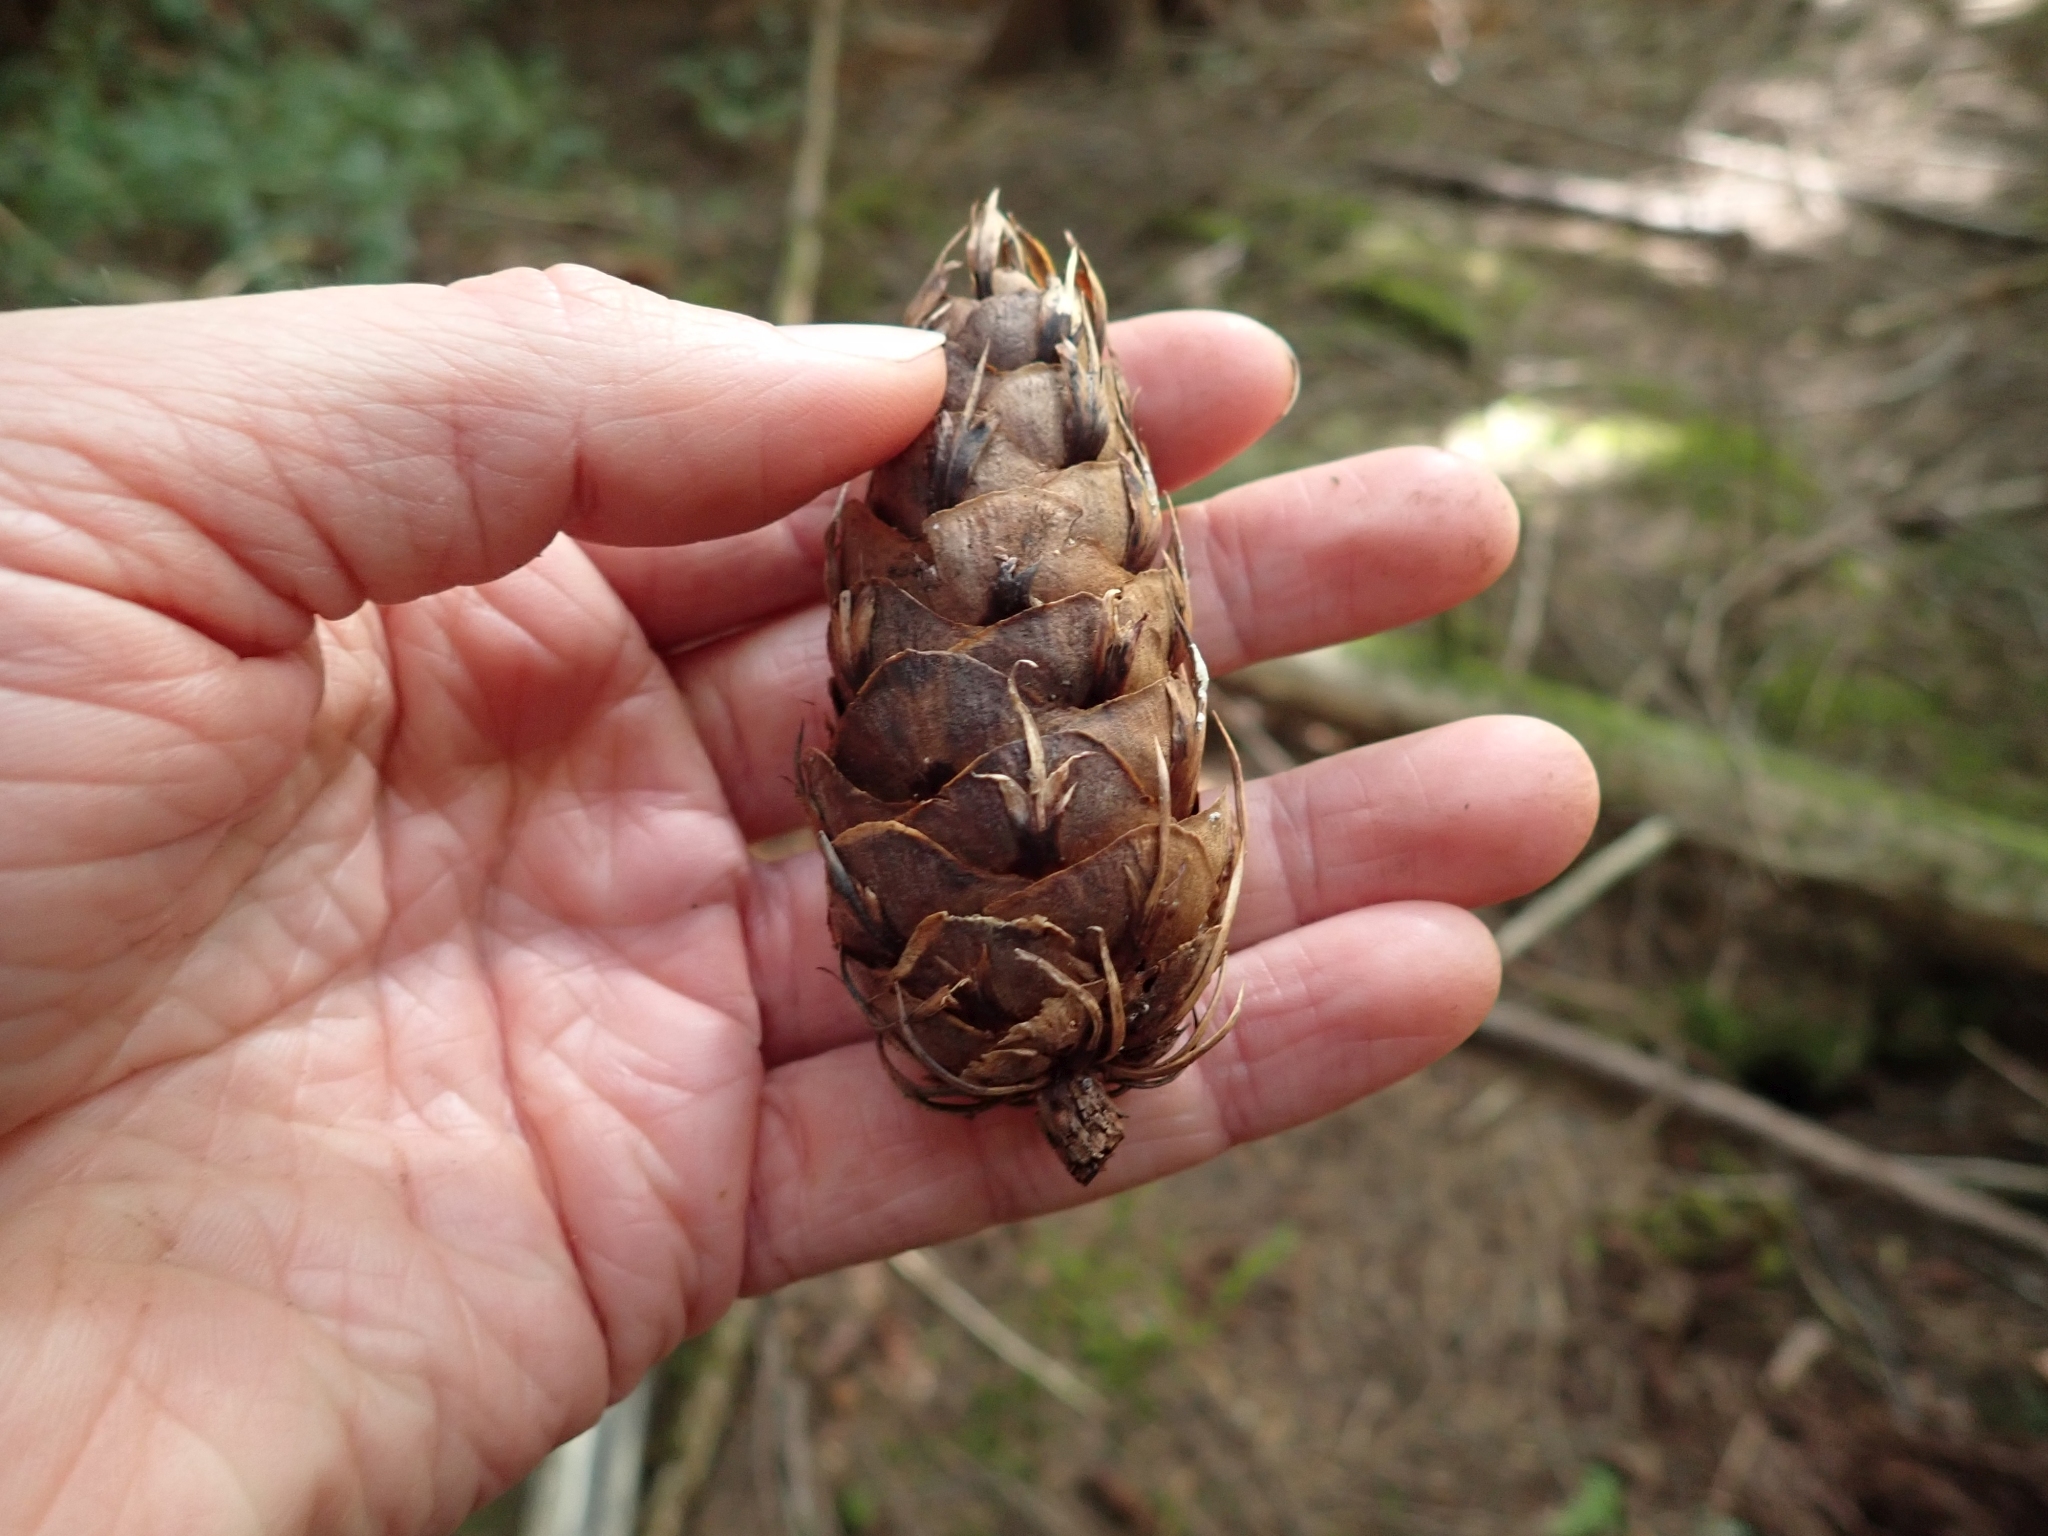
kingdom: Plantae
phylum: Tracheophyta
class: Pinopsida
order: Pinales
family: Pinaceae
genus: Pseudotsuga
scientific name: Pseudotsuga menziesii
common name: Douglas fir
